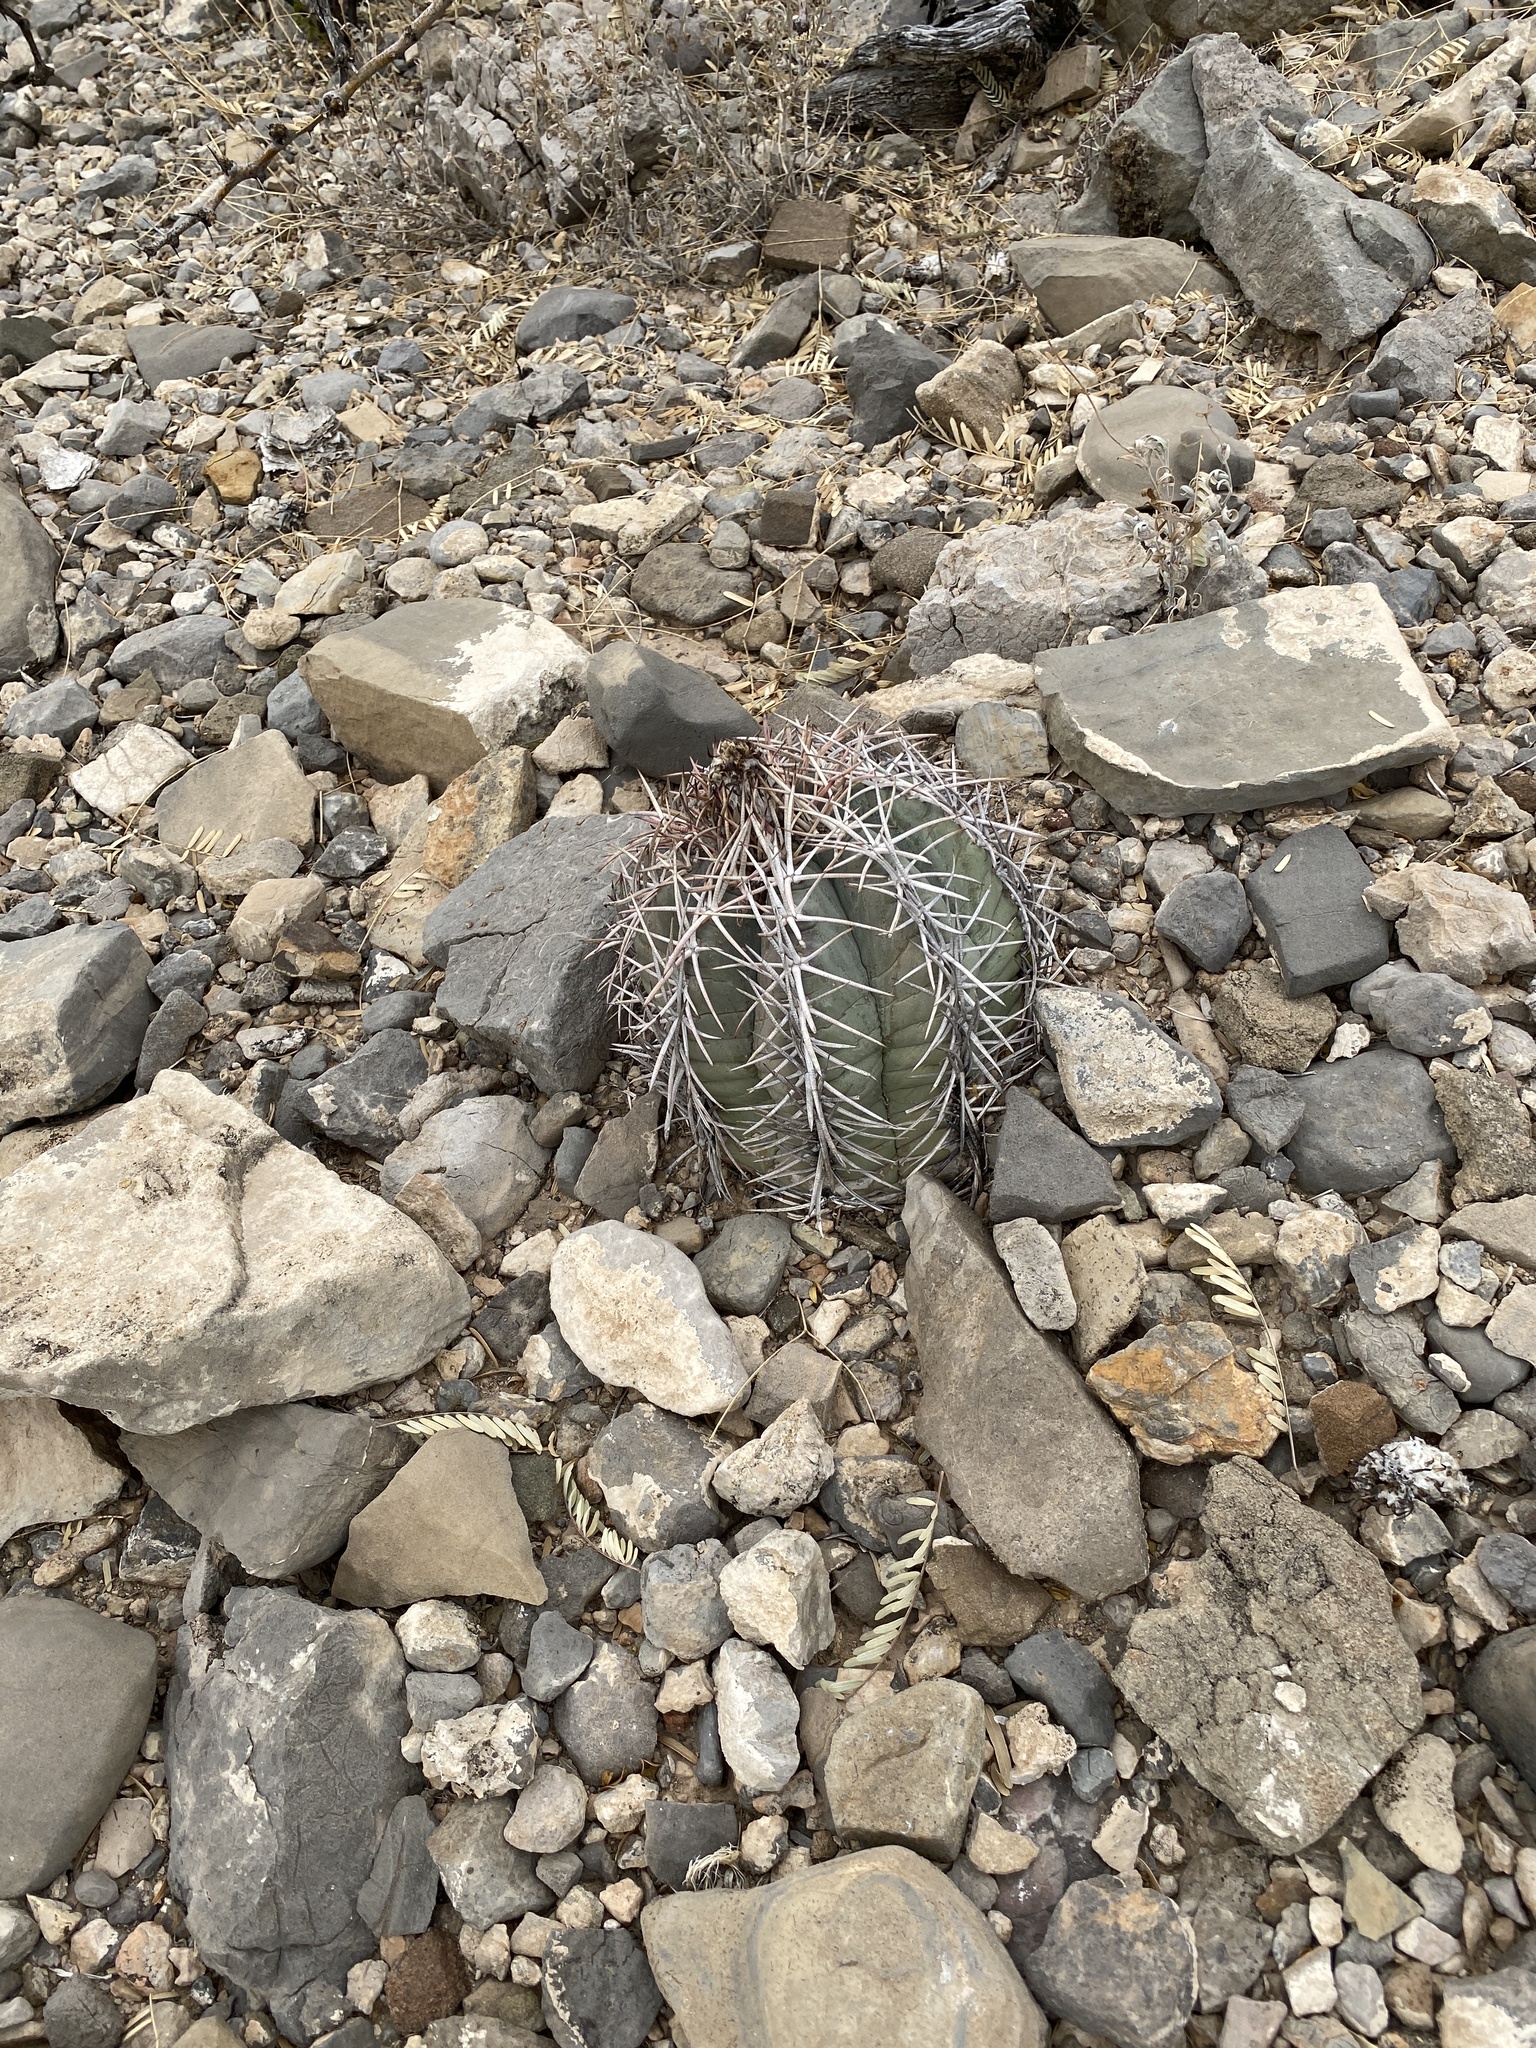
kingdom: Plantae
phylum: Tracheophyta
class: Magnoliopsida
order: Caryophyllales
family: Cactaceae
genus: Echinocactus
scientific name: Echinocactus horizonthalonius
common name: Devilshead
